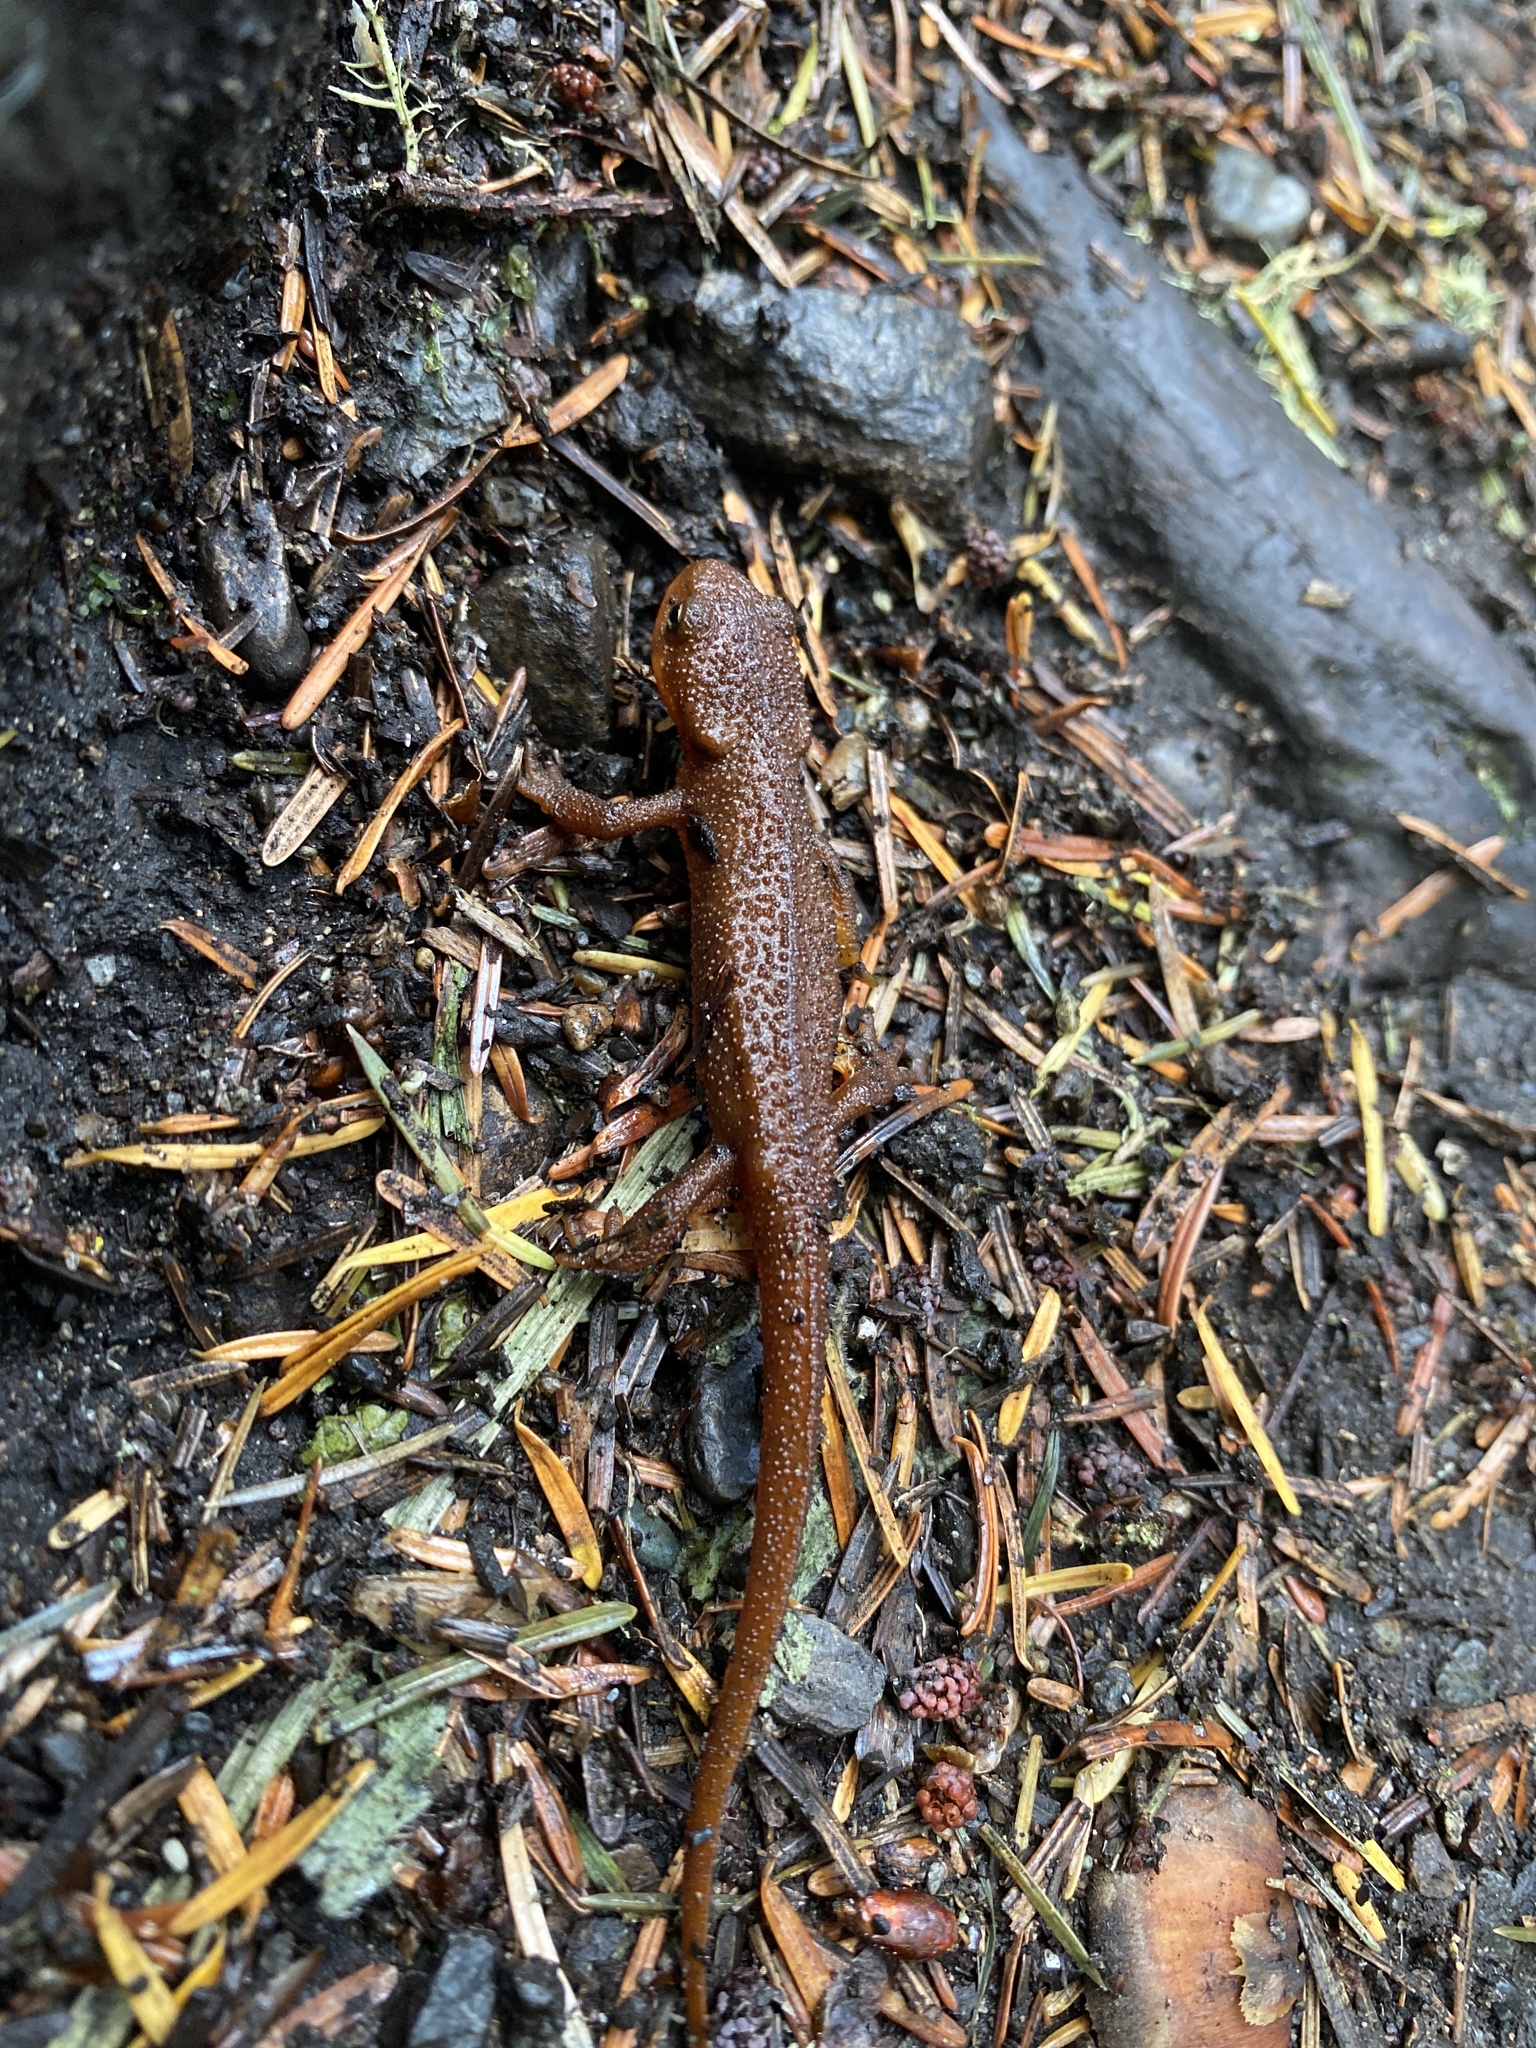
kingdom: Animalia
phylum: Chordata
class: Amphibia
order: Caudata
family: Salamandridae
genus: Taricha
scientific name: Taricha granulosa
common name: Roughskin newt
